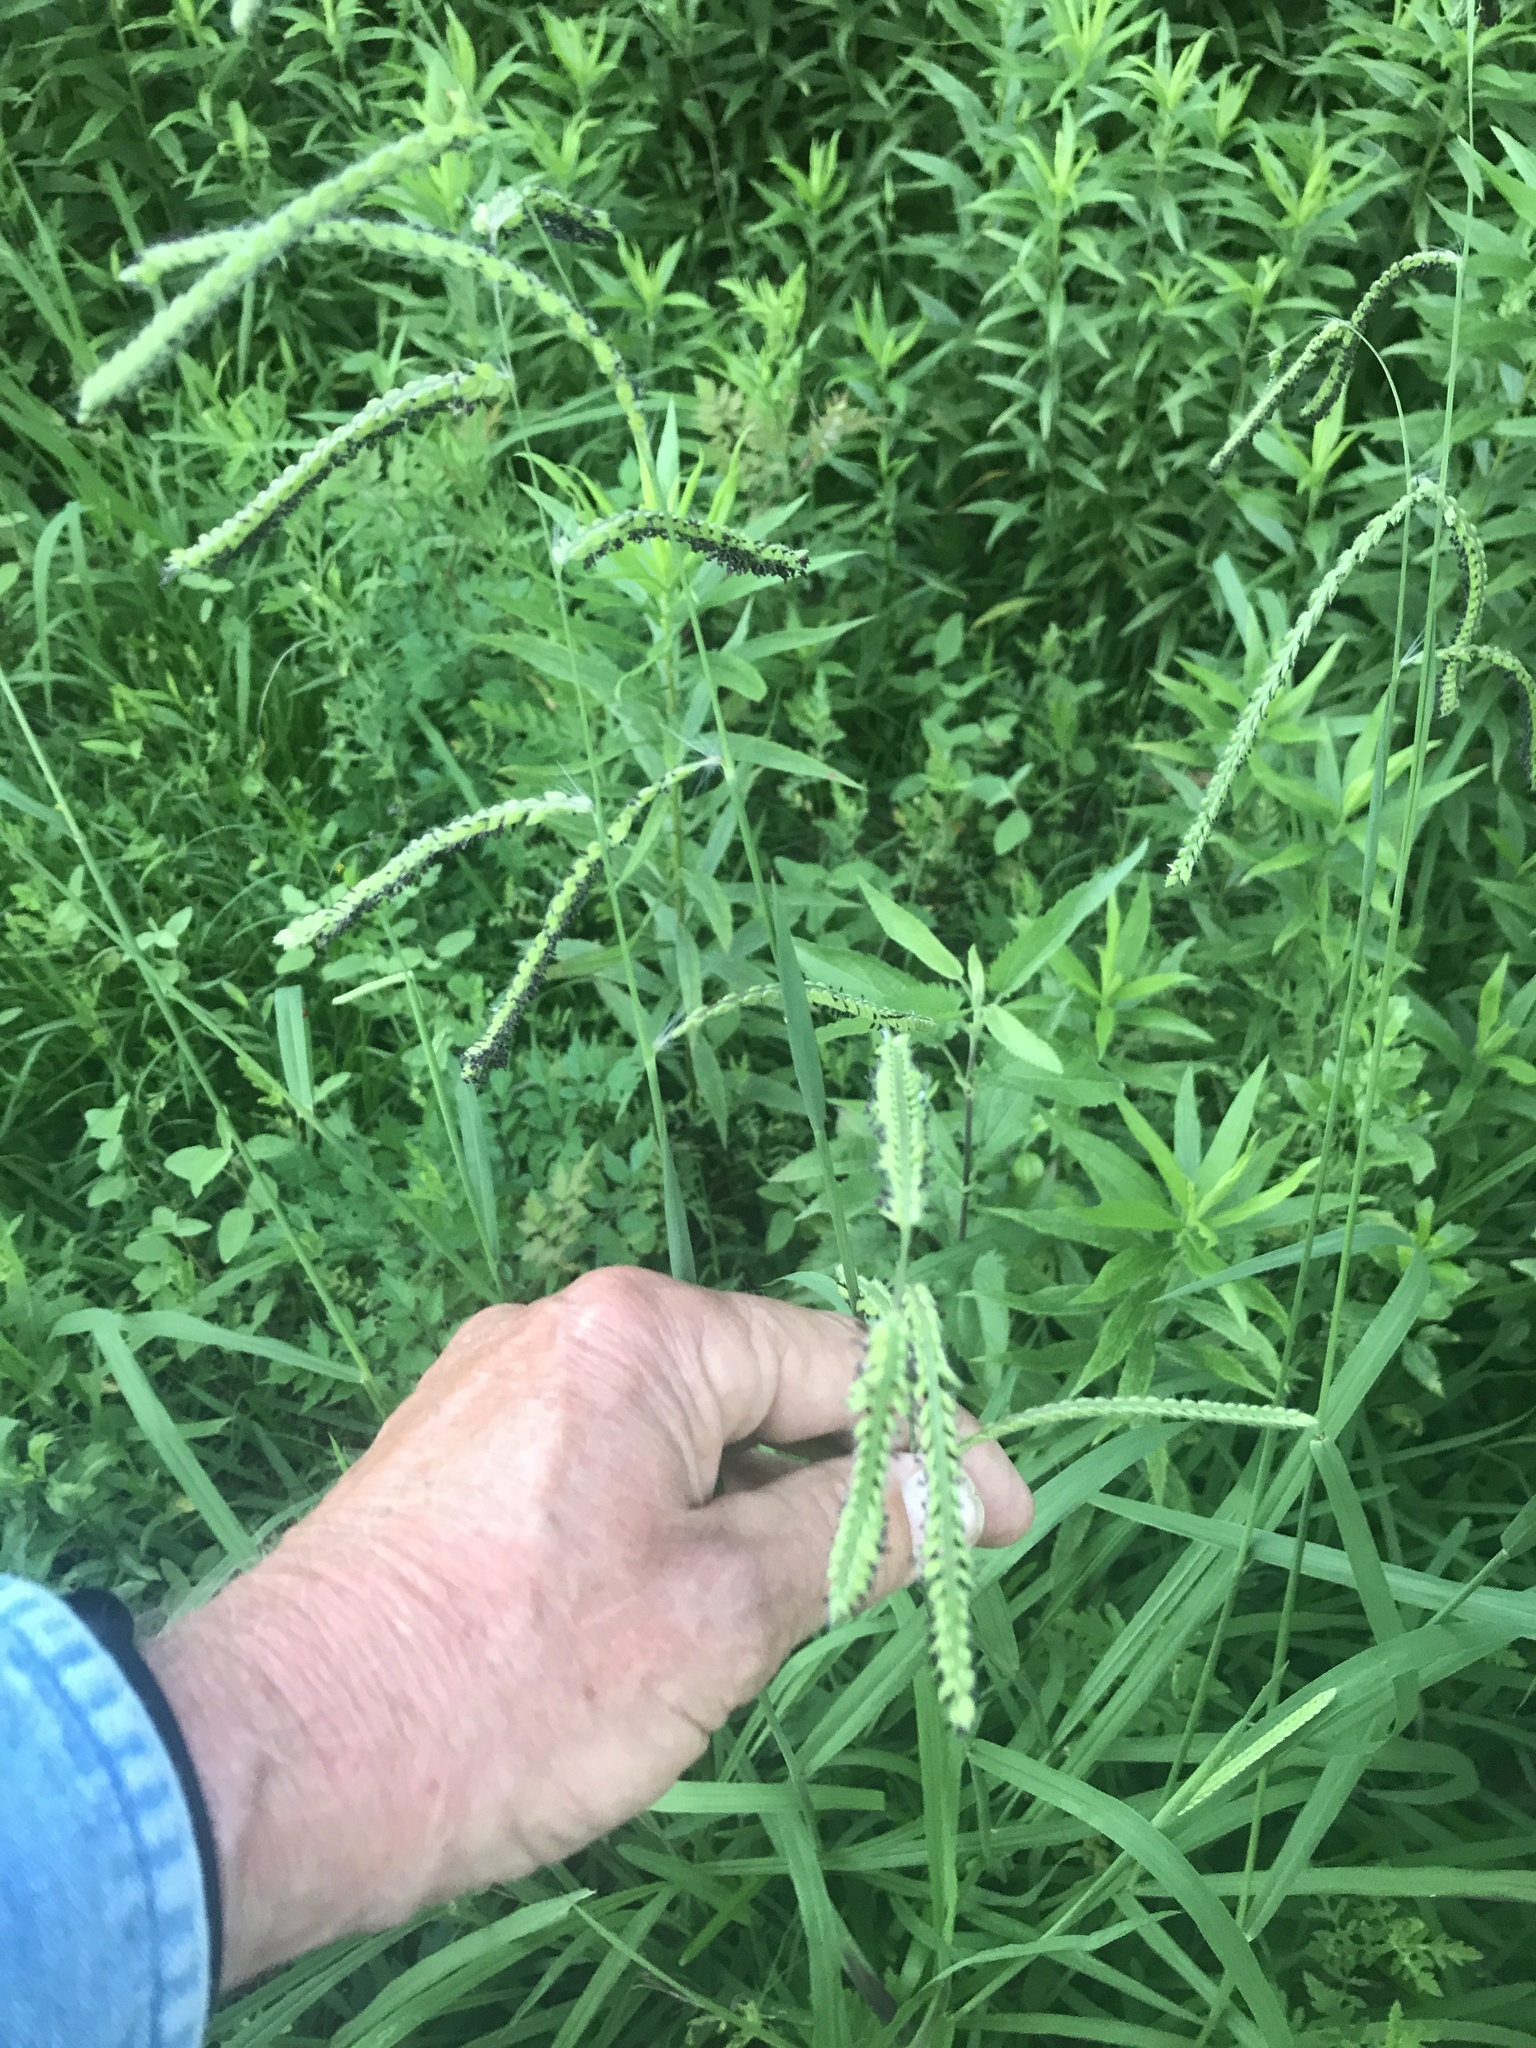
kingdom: Plantae
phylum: Tracheophyta
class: Liliopsida
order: Poales
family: Poaceae
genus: Paspalum
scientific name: Paspalum dilatatum
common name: Dallisgrass
